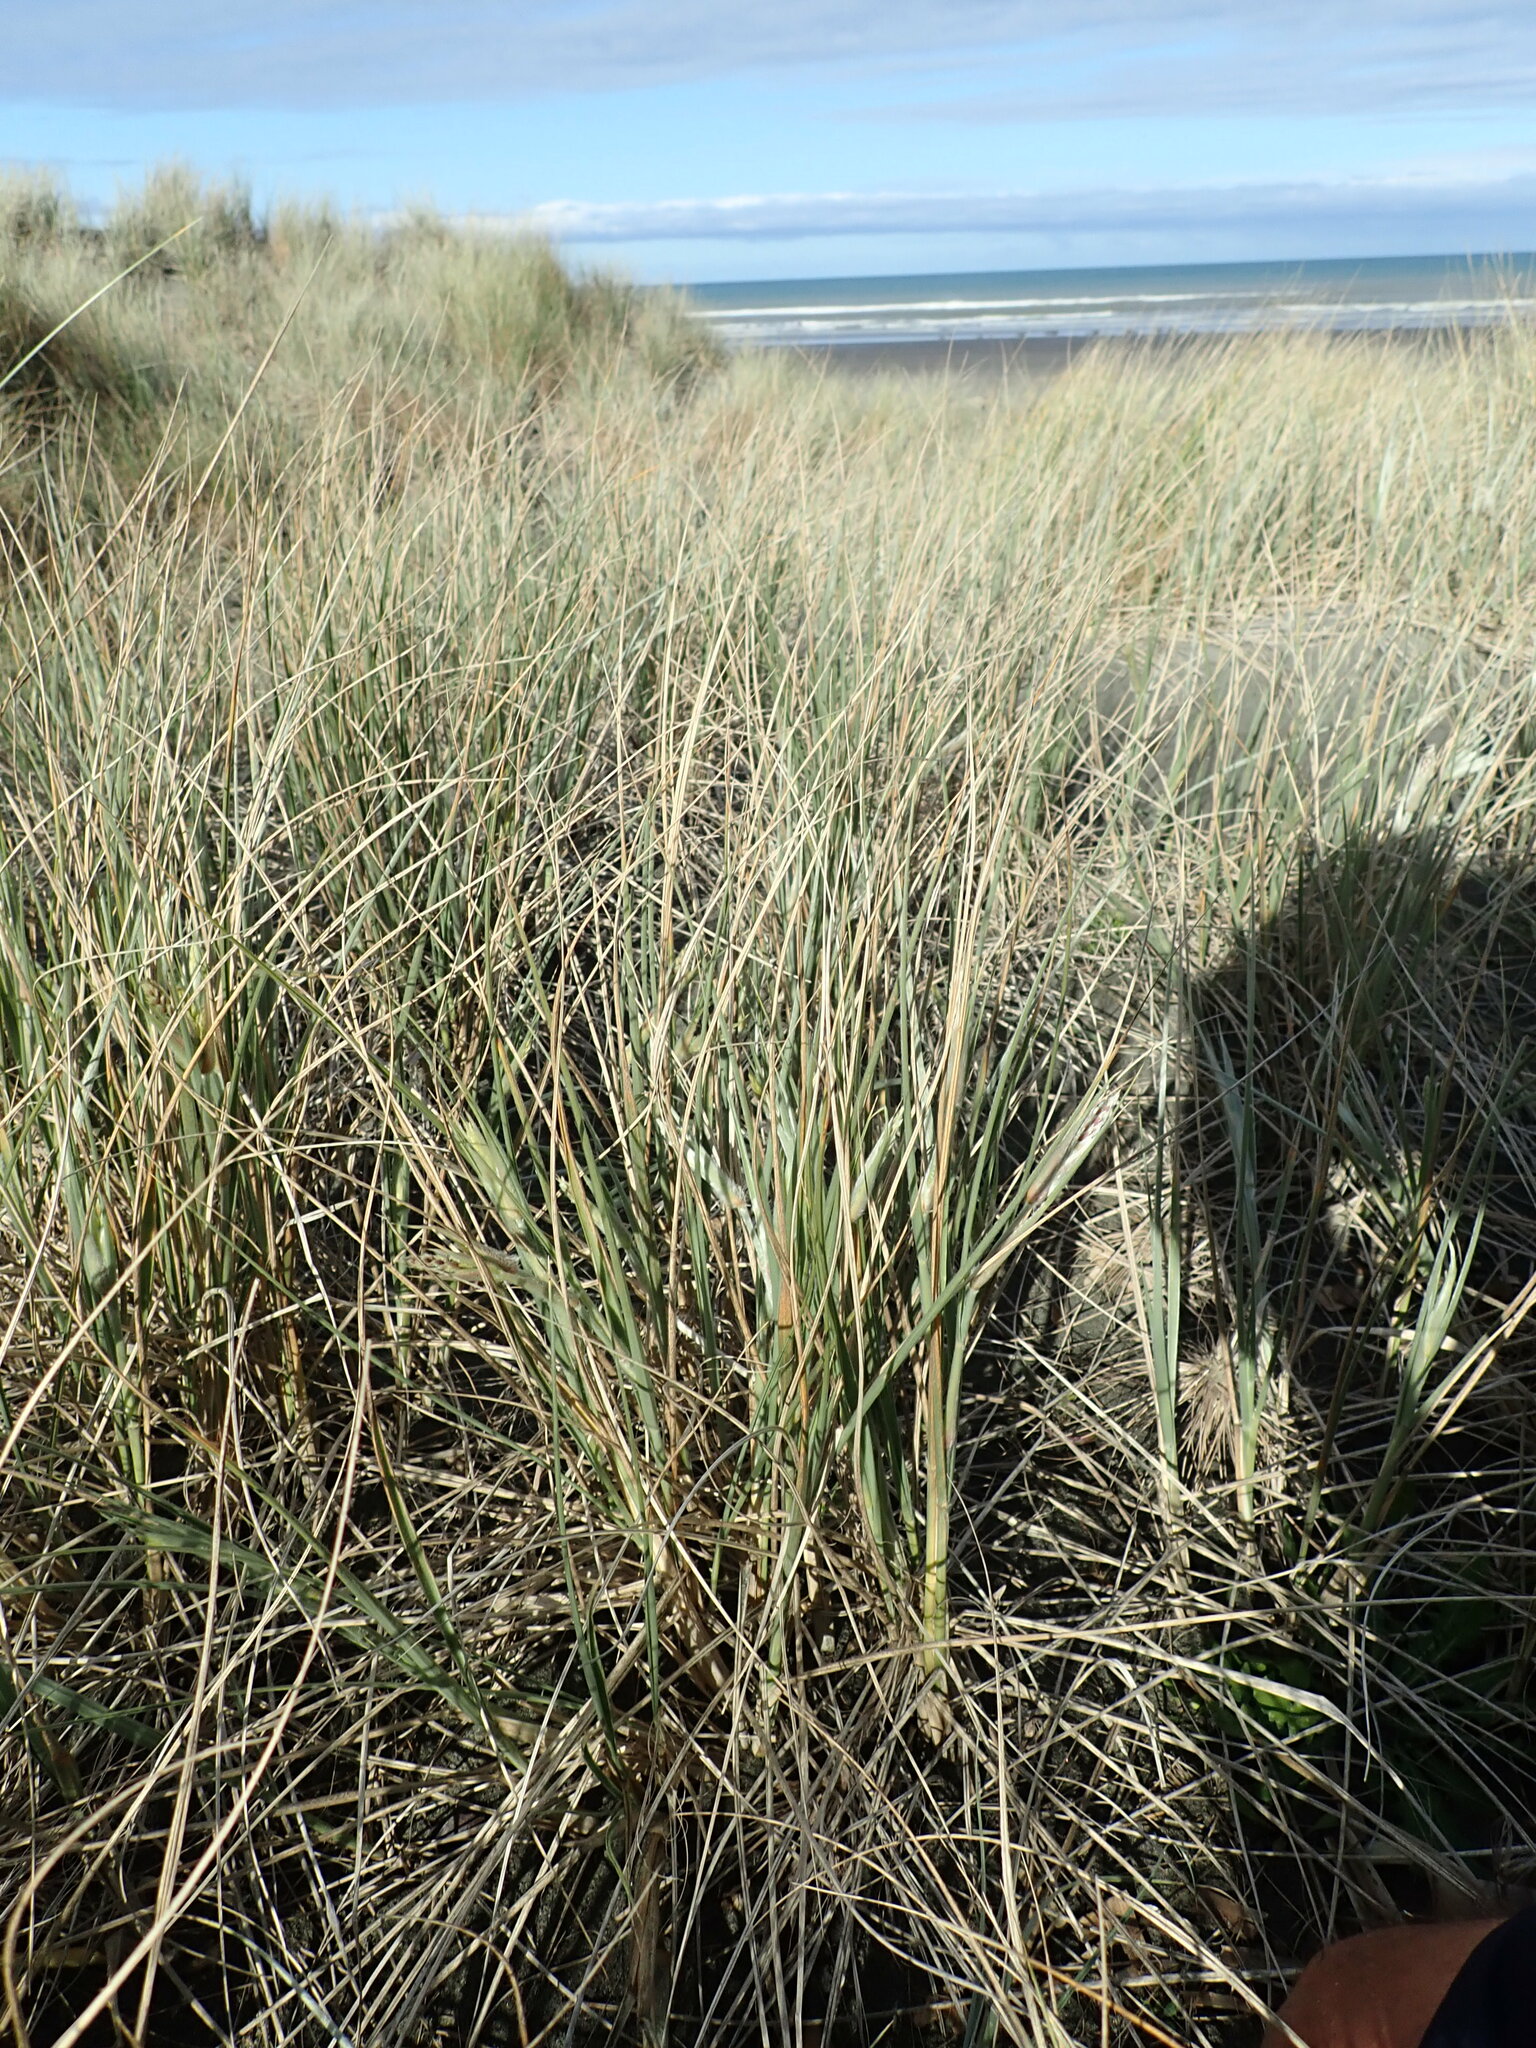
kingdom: Plantae
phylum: Tracheophyta
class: Liliopsida
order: Poales
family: Poaceae
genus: Spinifex
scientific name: Spinifex sericeus
